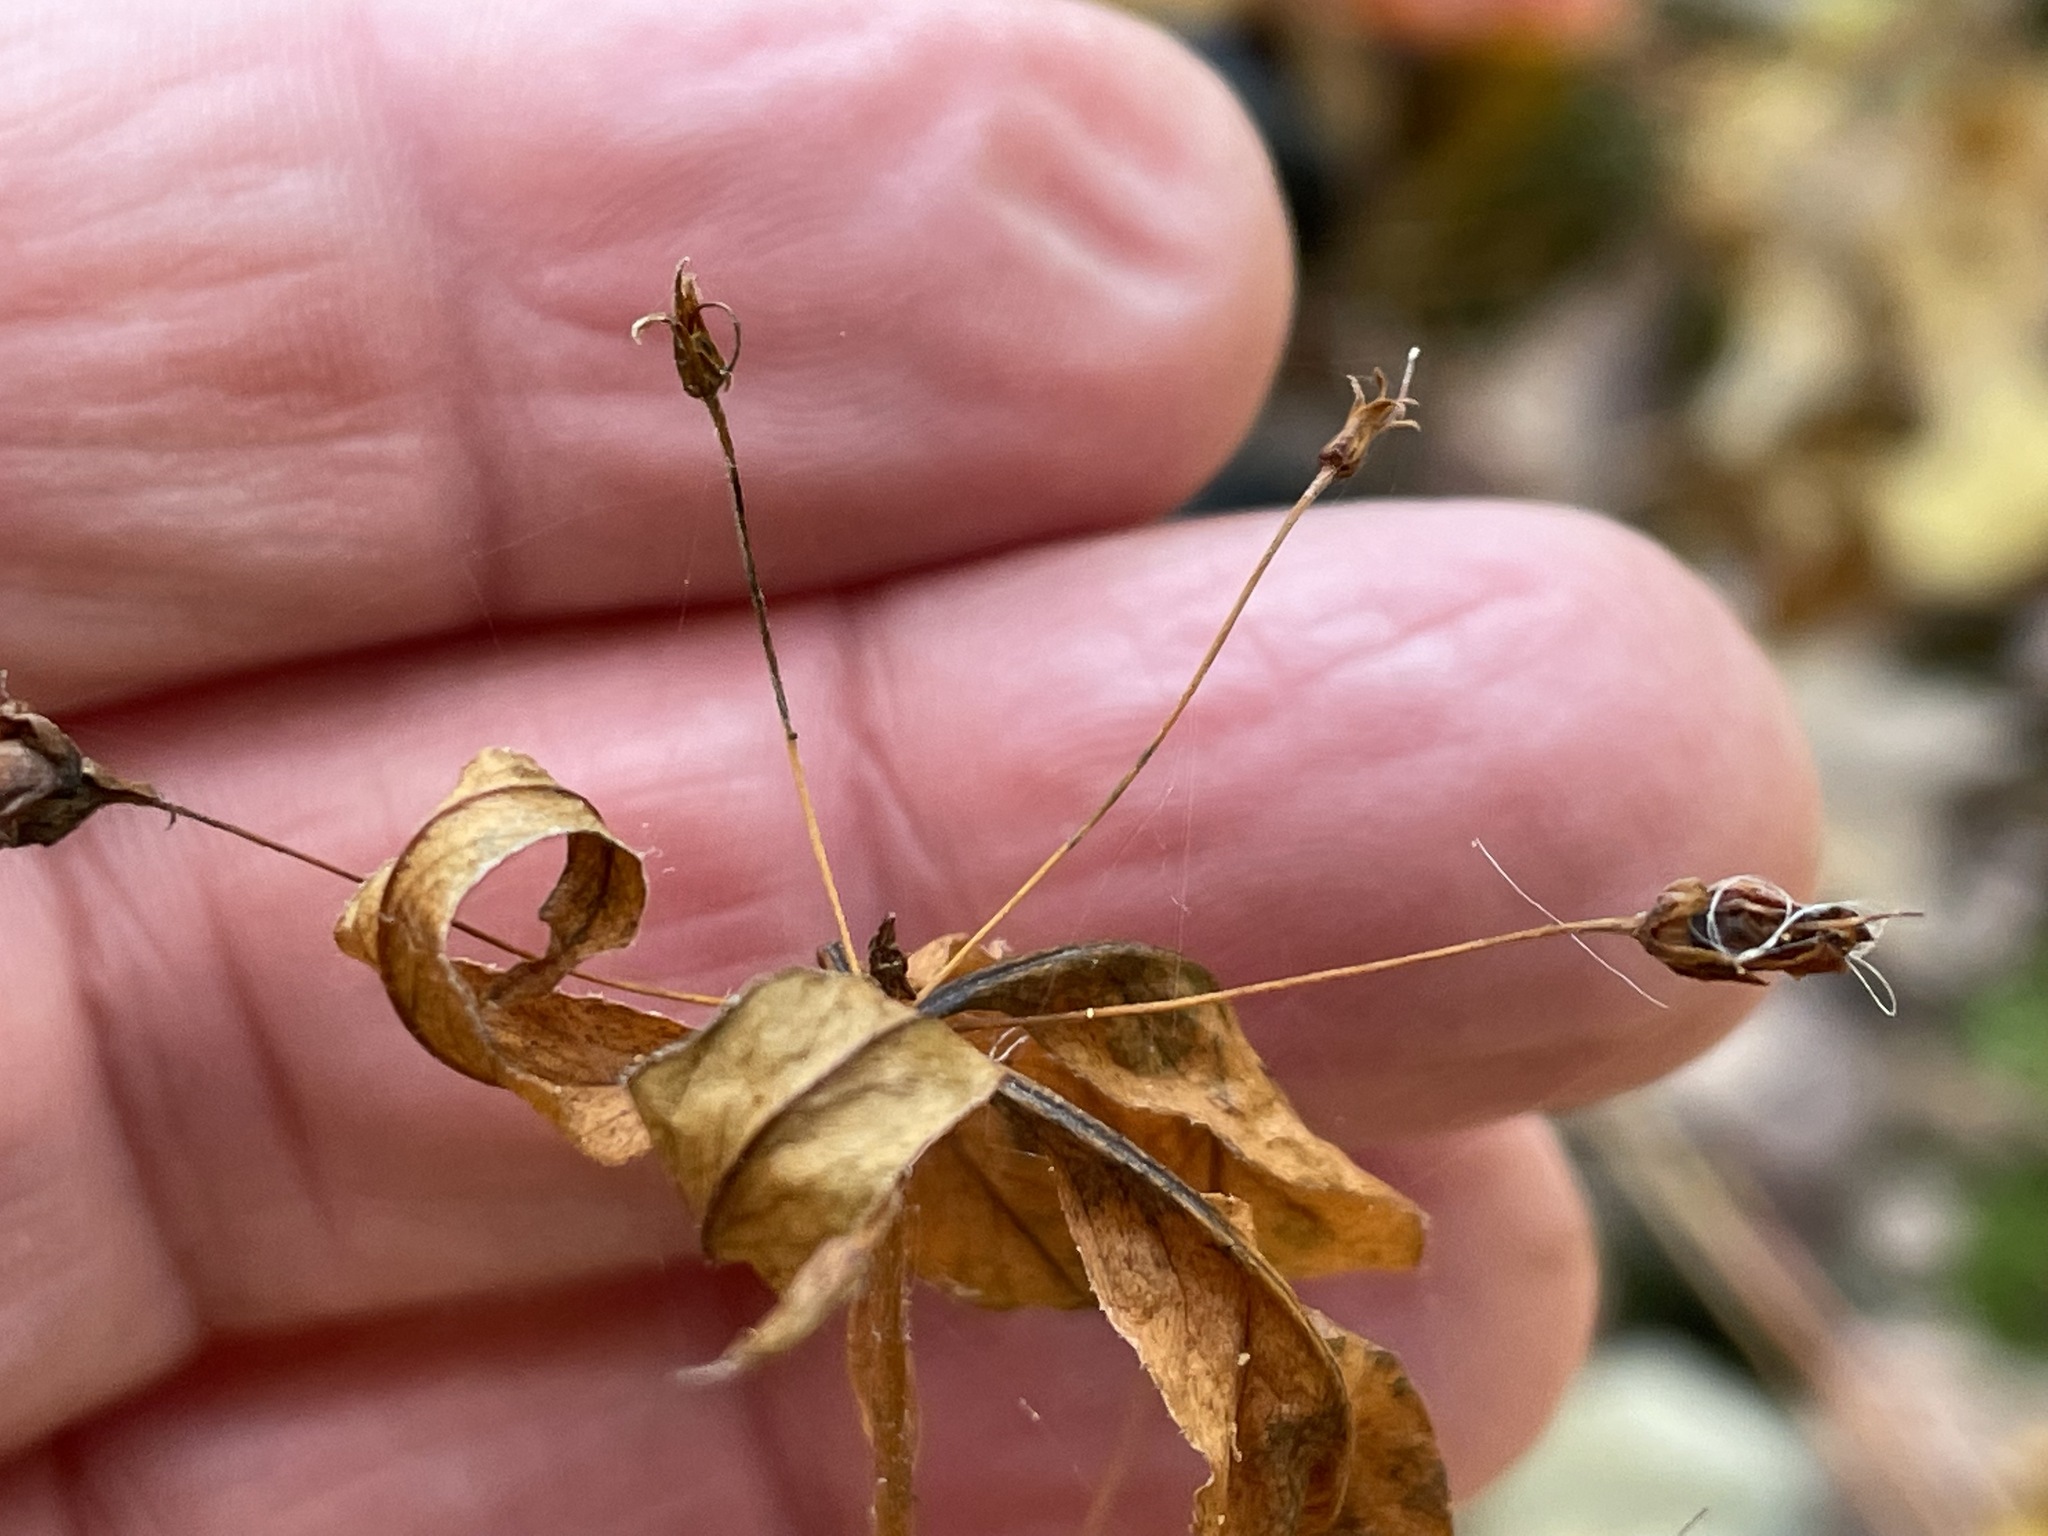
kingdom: Plantae
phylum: Tracheophyta
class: Magnoliopsida
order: Ericales
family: Primulaceae
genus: Lysimachia
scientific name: Lysimachia quadrifolia
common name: Whorled loosestrife
